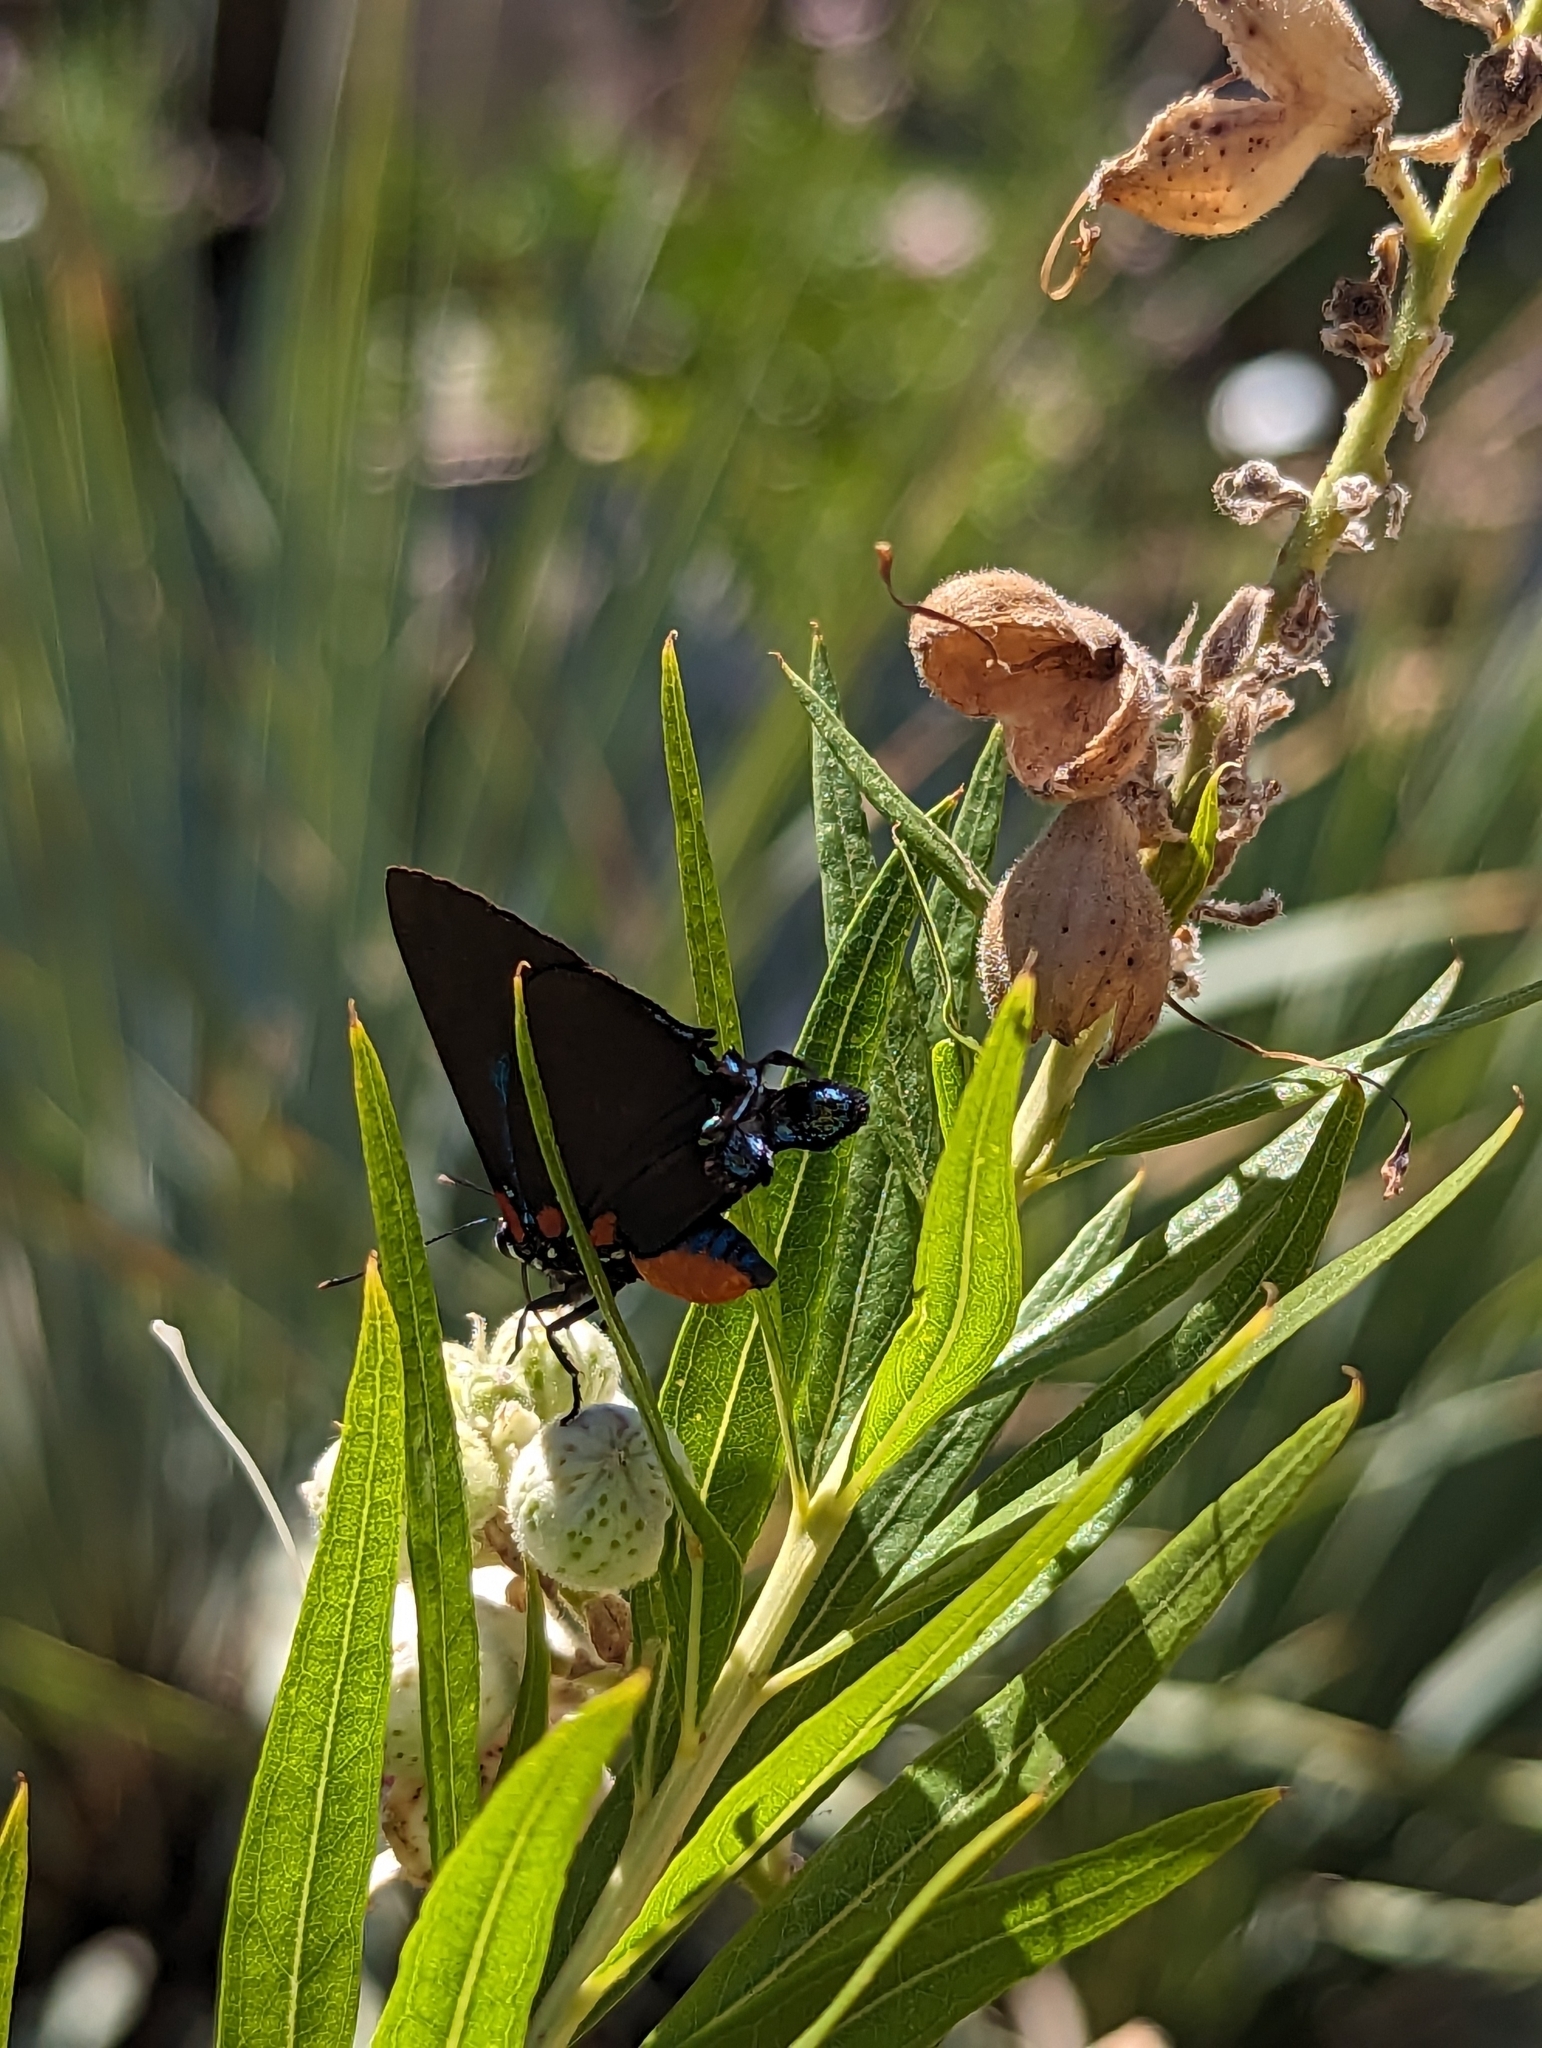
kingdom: Animalia
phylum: Arthropoda
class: Insecta
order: Lepidoptera
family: Lycaenidae
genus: Atlides
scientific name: Atlides halesus
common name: Great purple hairstreak
